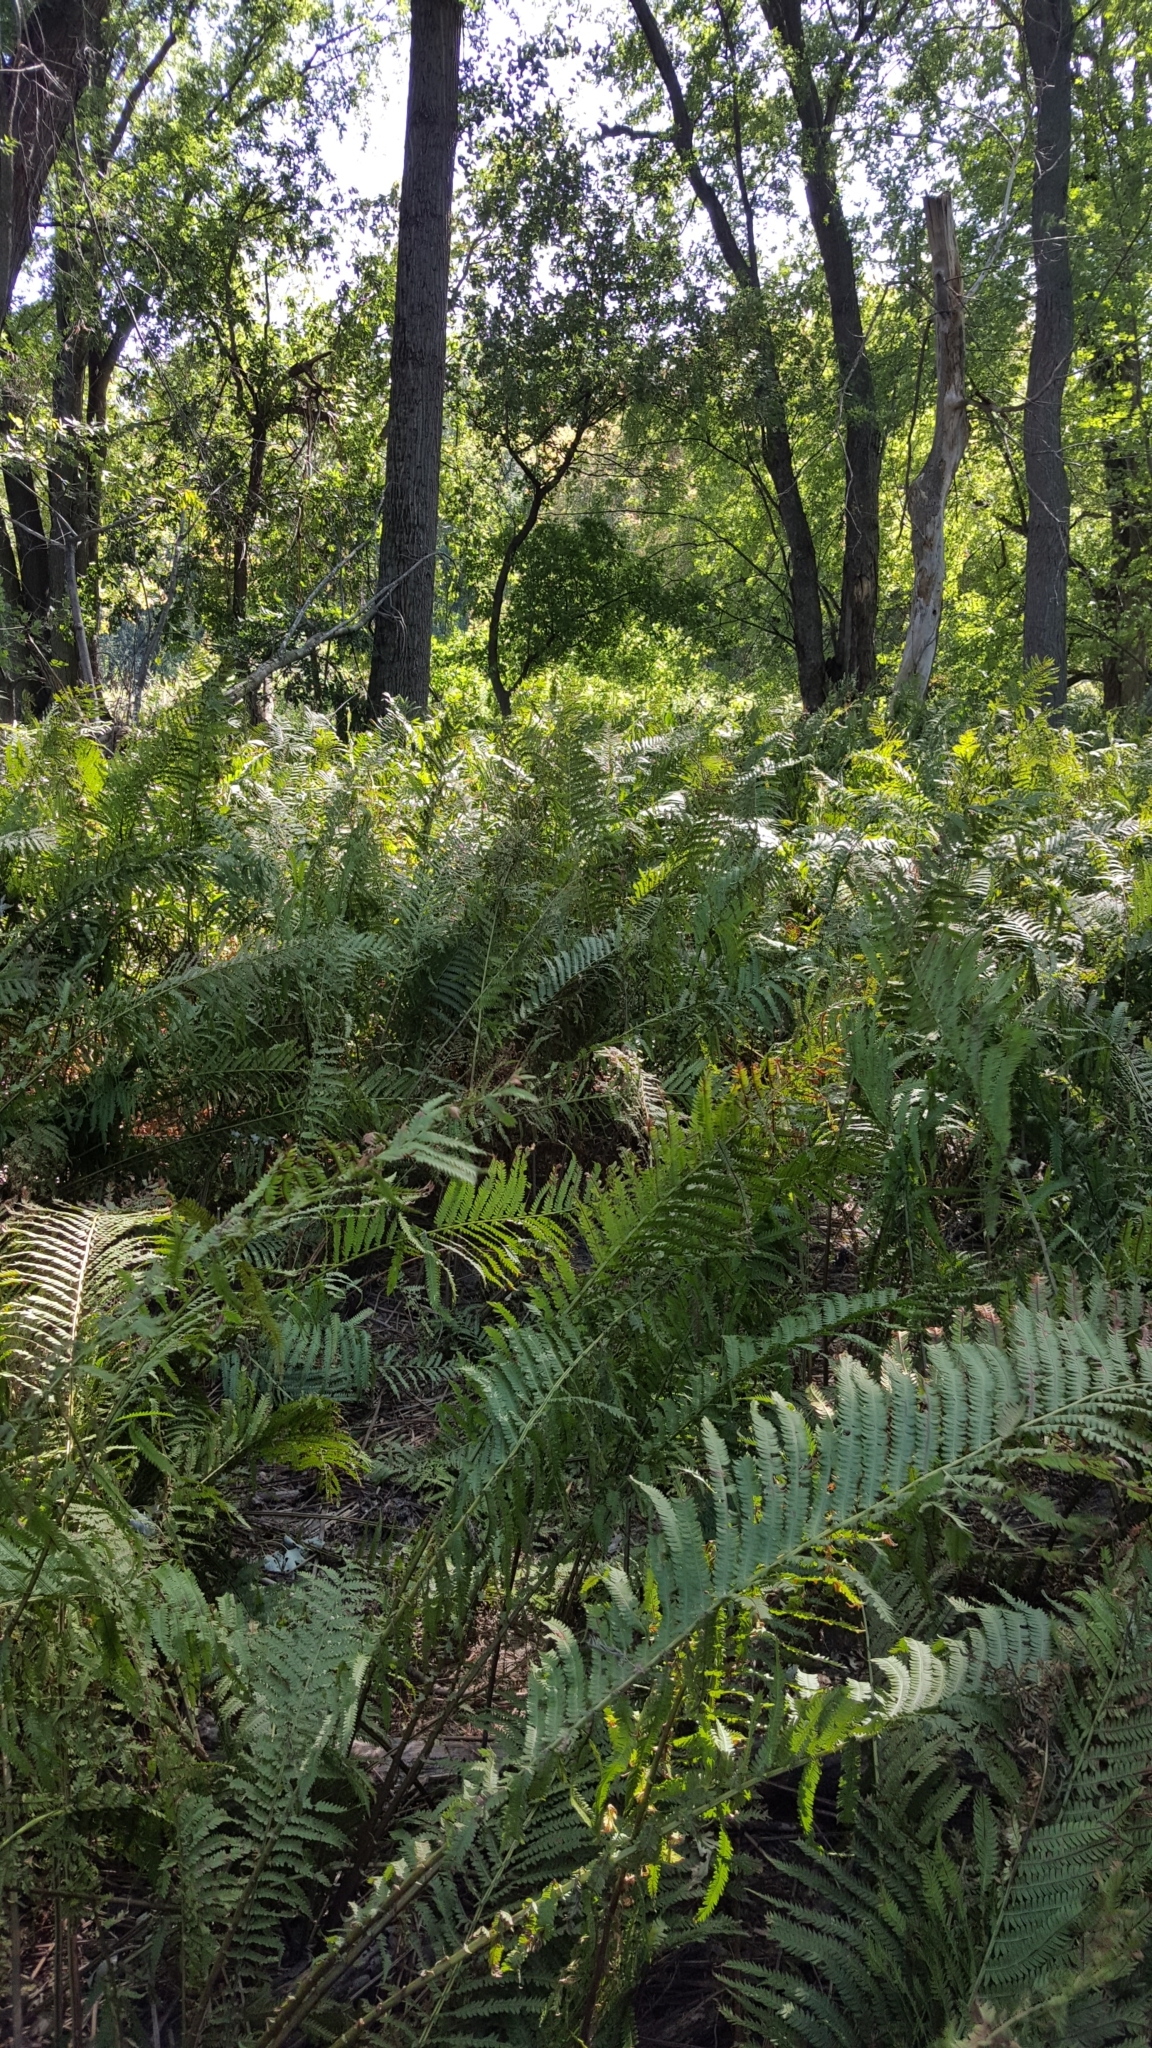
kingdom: Plantae
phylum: Tracheophyta
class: Polypodiopsida
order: Polypodiales
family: Onocleaceae
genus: Matteuccia
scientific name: Matteuccia struthiopteris
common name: Ostrich fern
